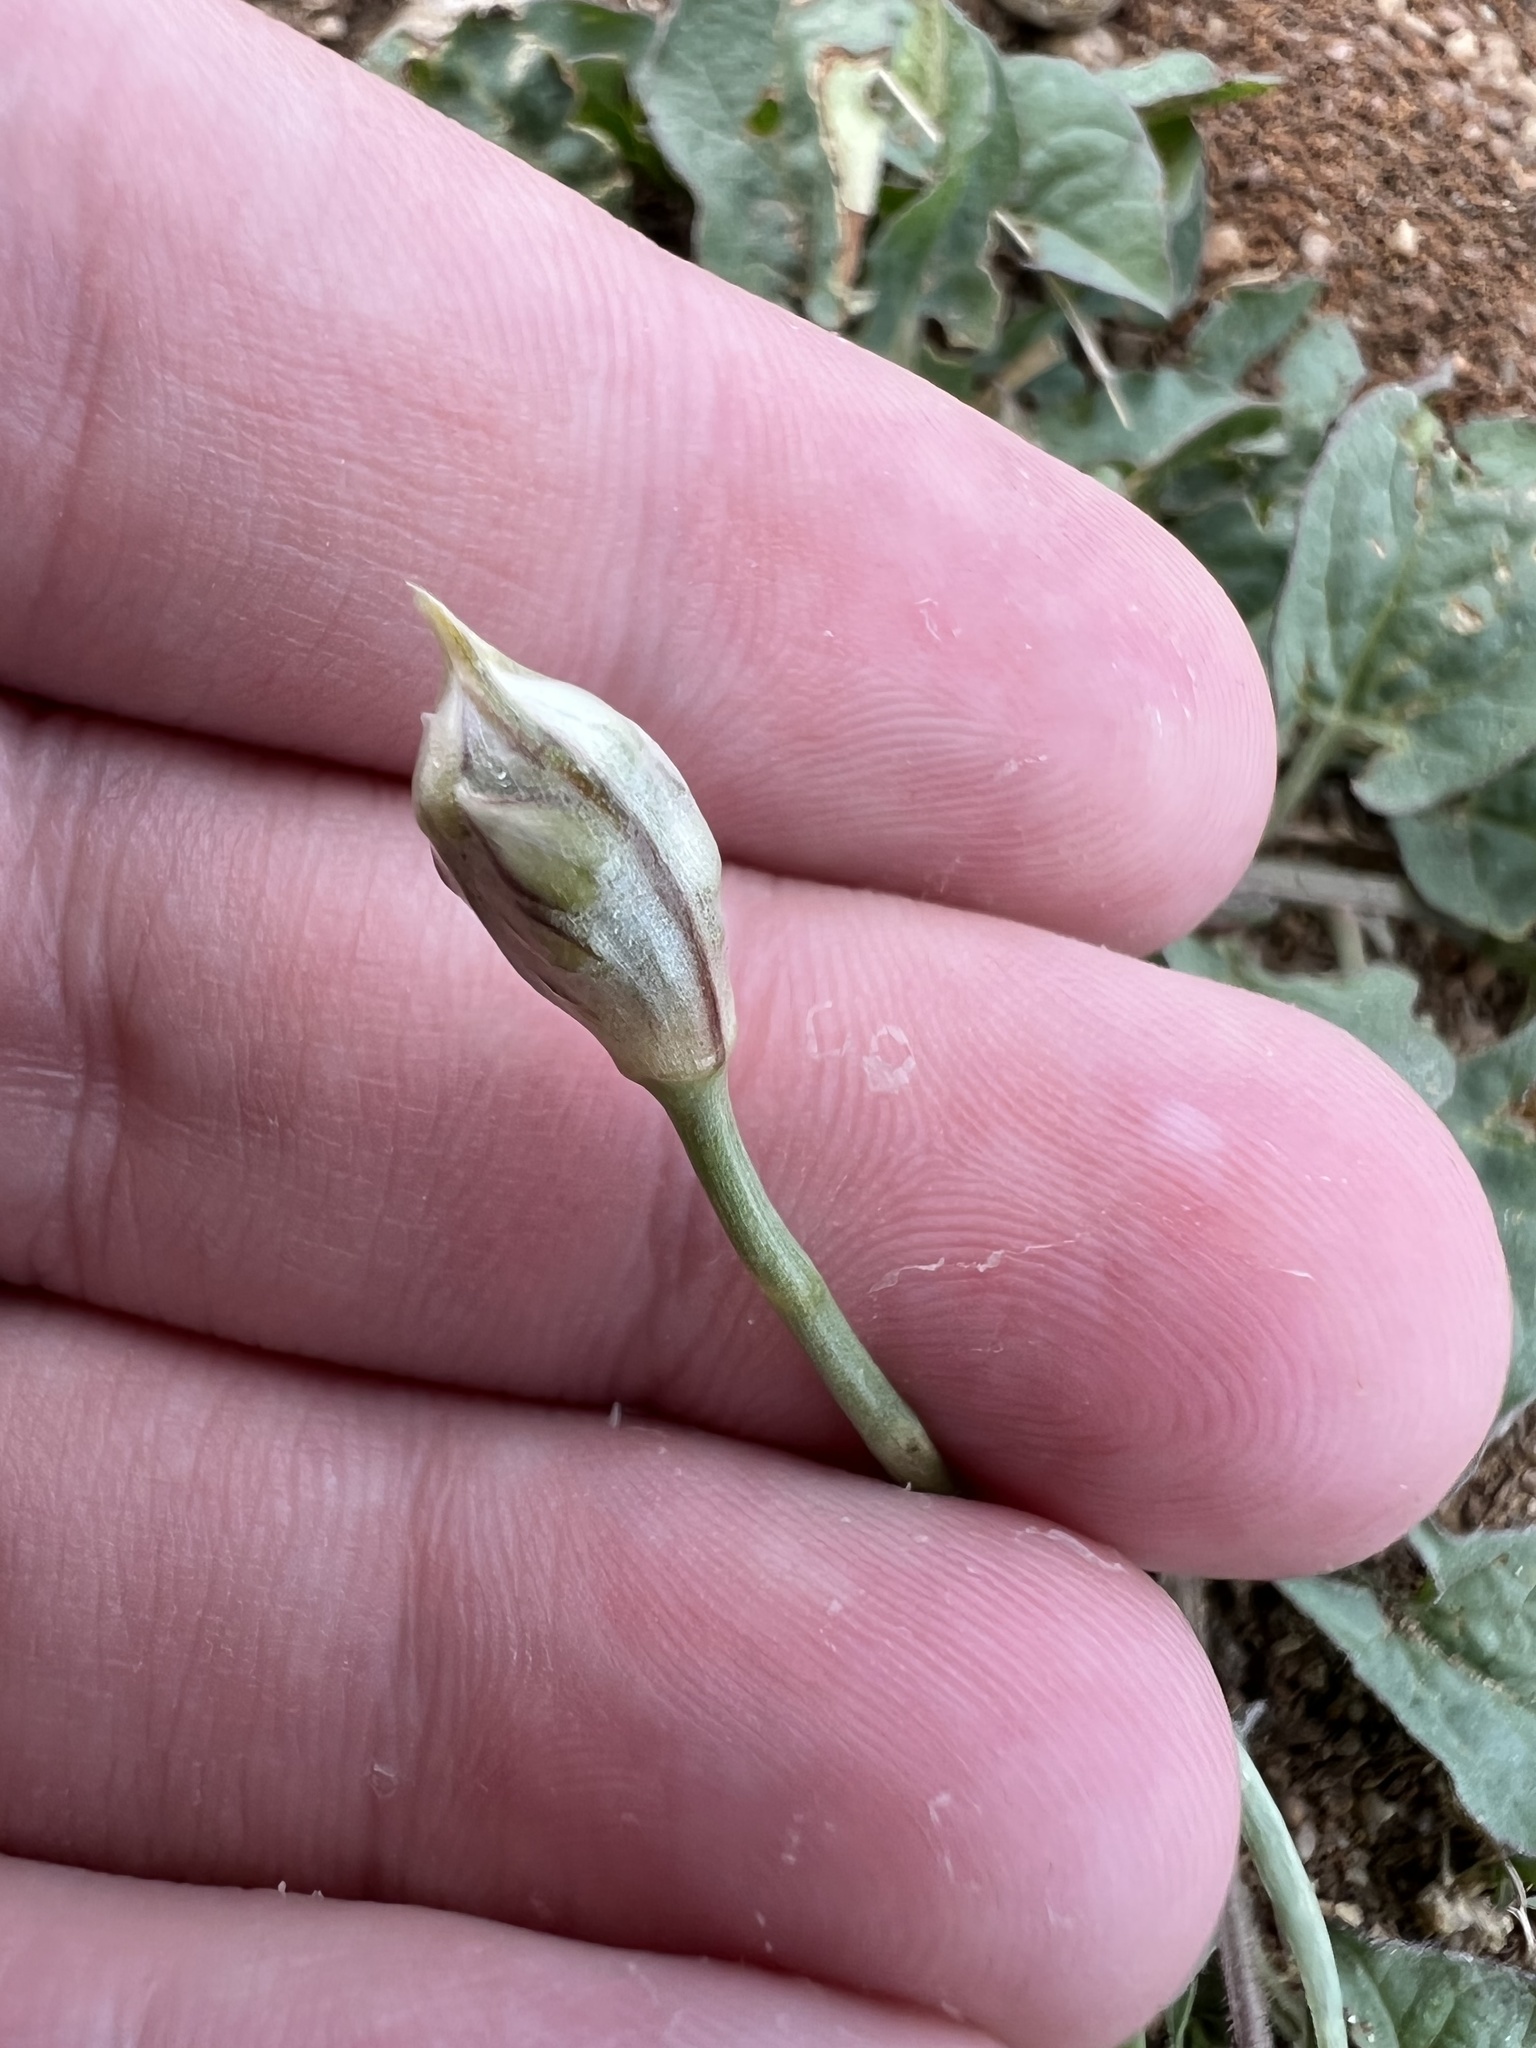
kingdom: Plantae
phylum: Tracheophyta
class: Liliopsida
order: Asparagales
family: Amaryllidaceae
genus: Allium
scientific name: Allium textile
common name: Prairie onion
